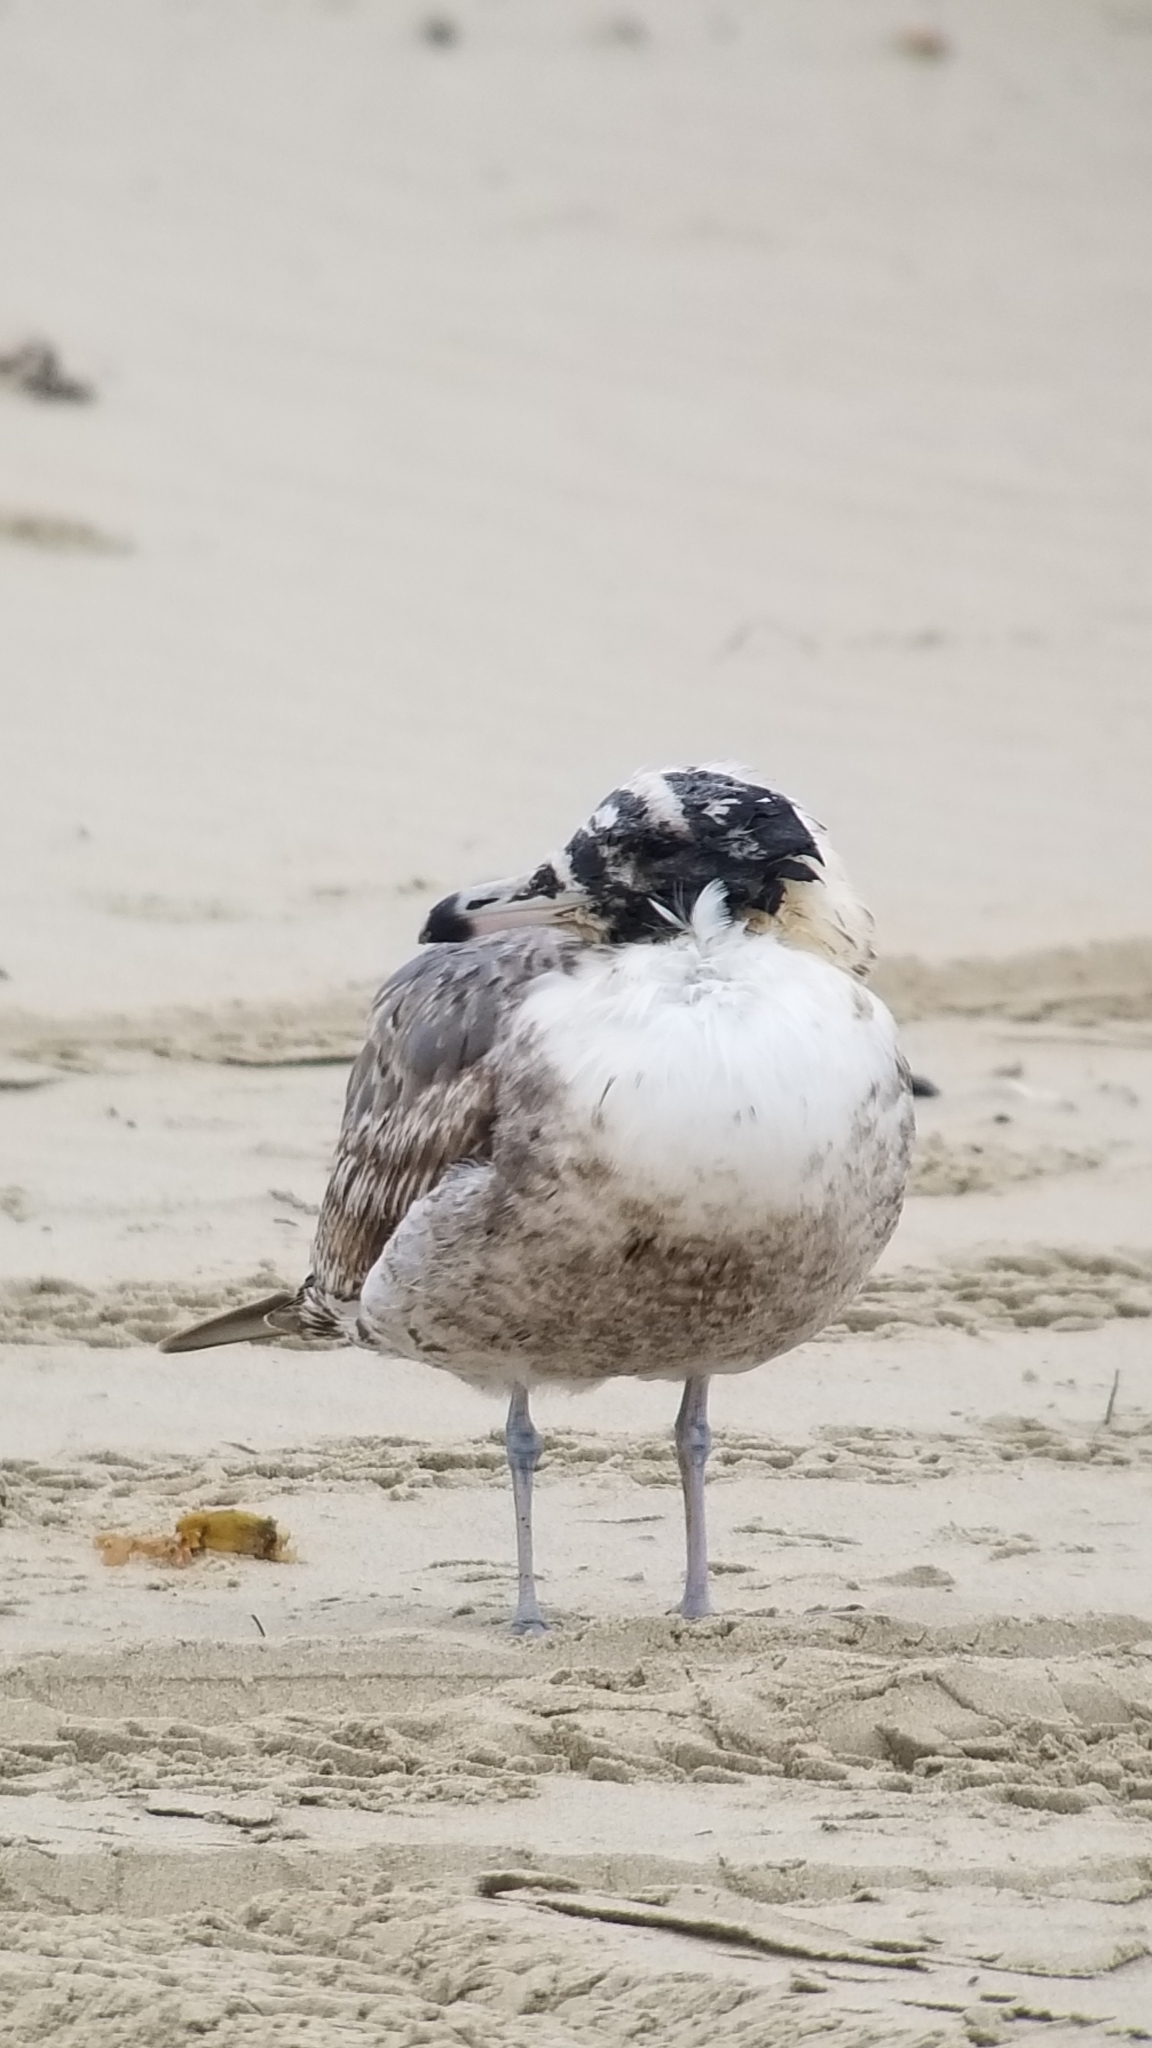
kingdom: Animalia
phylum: Chordata
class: Aves
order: Charadriiformes
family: Laridae
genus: Larus
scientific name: Larus californicus
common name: California gull
